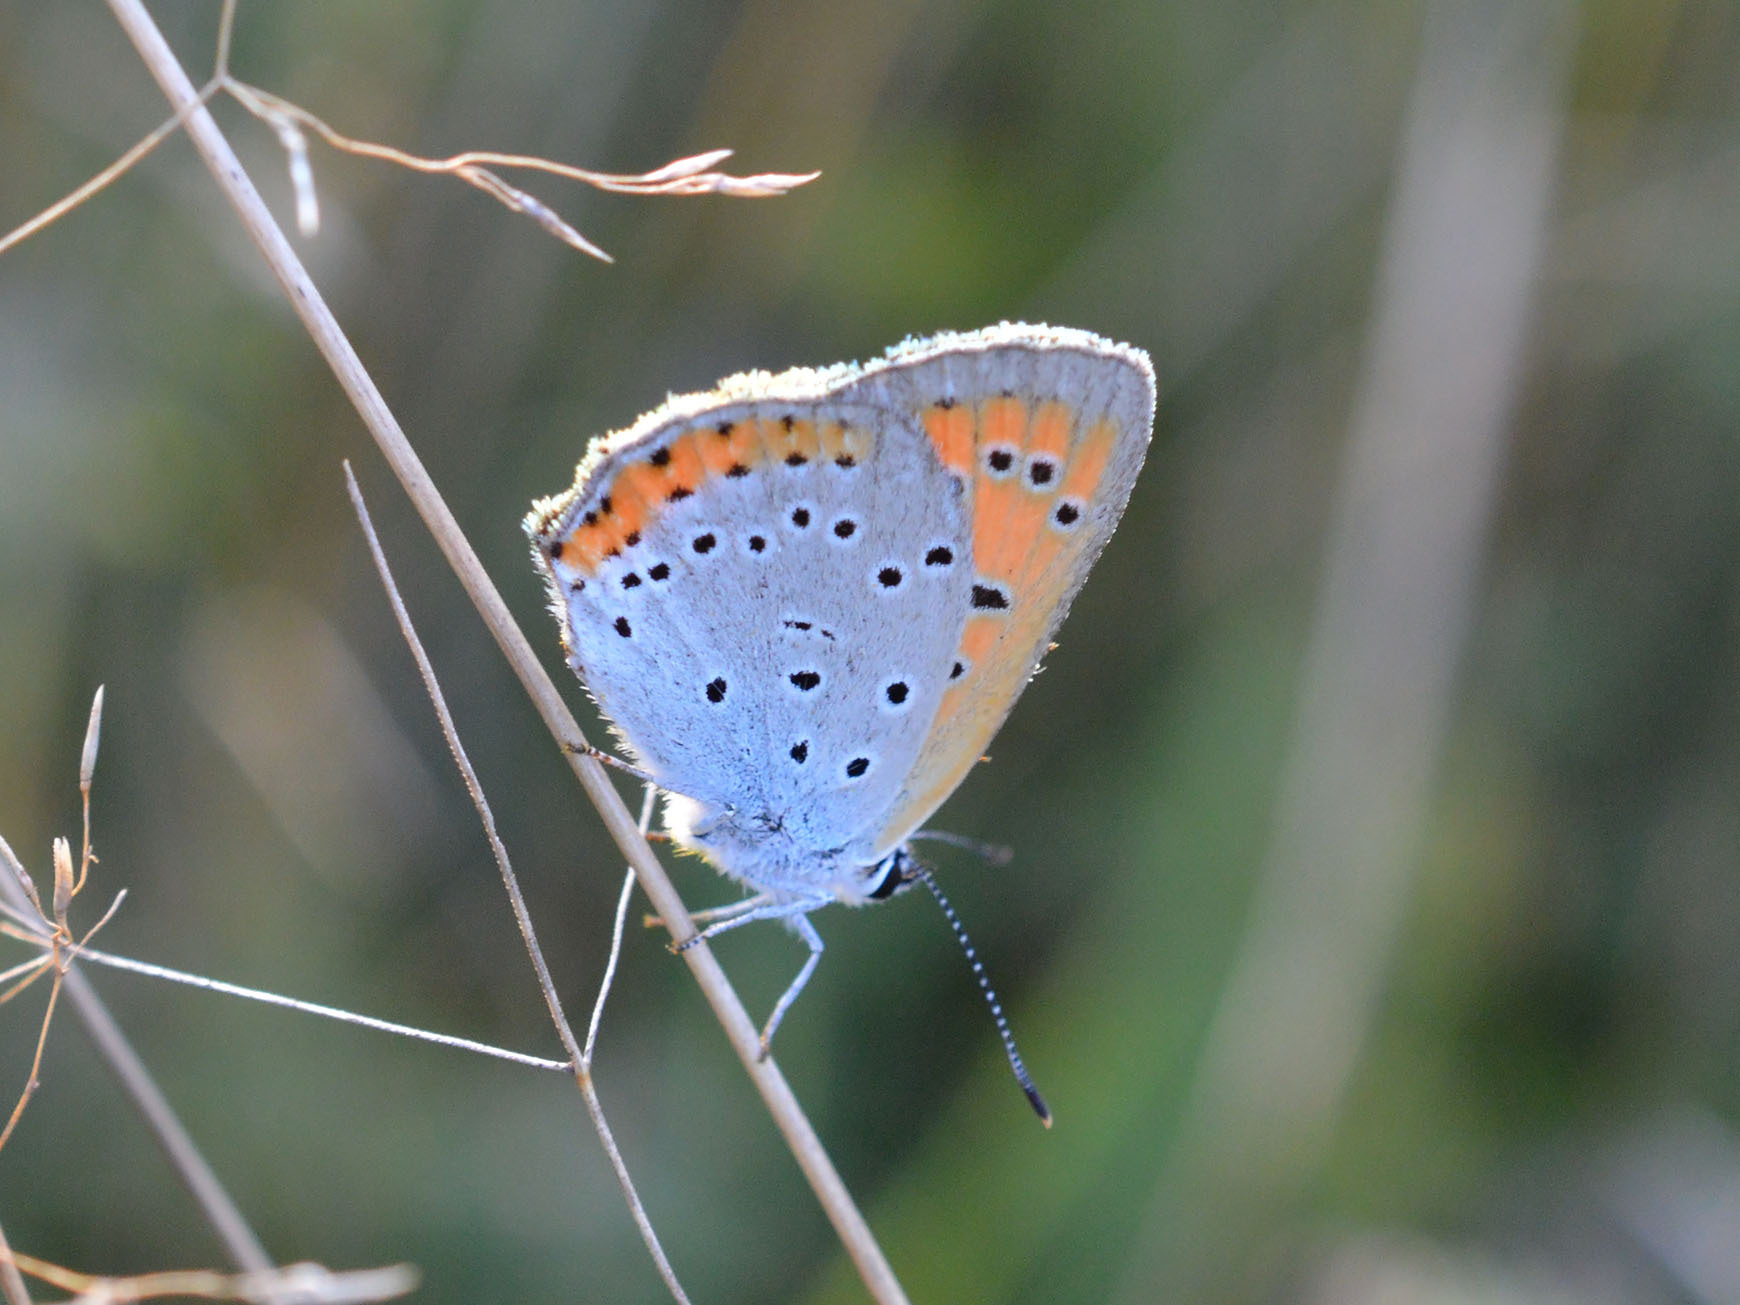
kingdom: Animalia
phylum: Arthropoda
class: Insecta
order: Lepidoptera
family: Lycaenidae
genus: Lycaena
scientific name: Lycaena dispar
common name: Large copper
